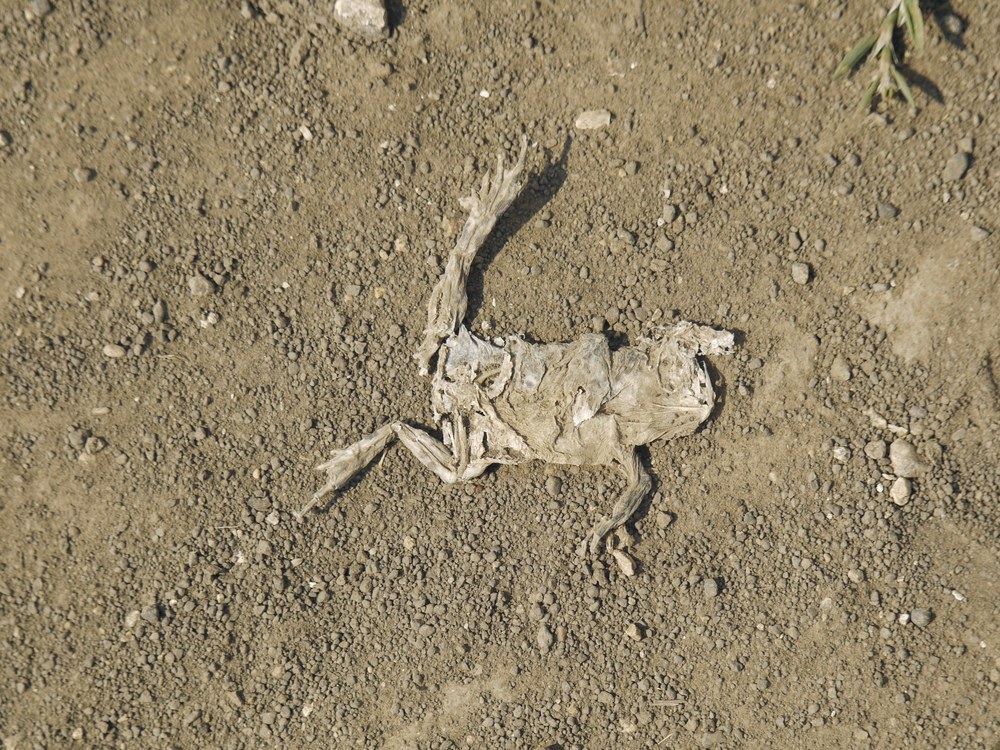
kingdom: Animalia
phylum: Chordata
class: Amphibia
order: Anura
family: Bufonidae
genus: Bufotes
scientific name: Bufotes viridis
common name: European green toad
